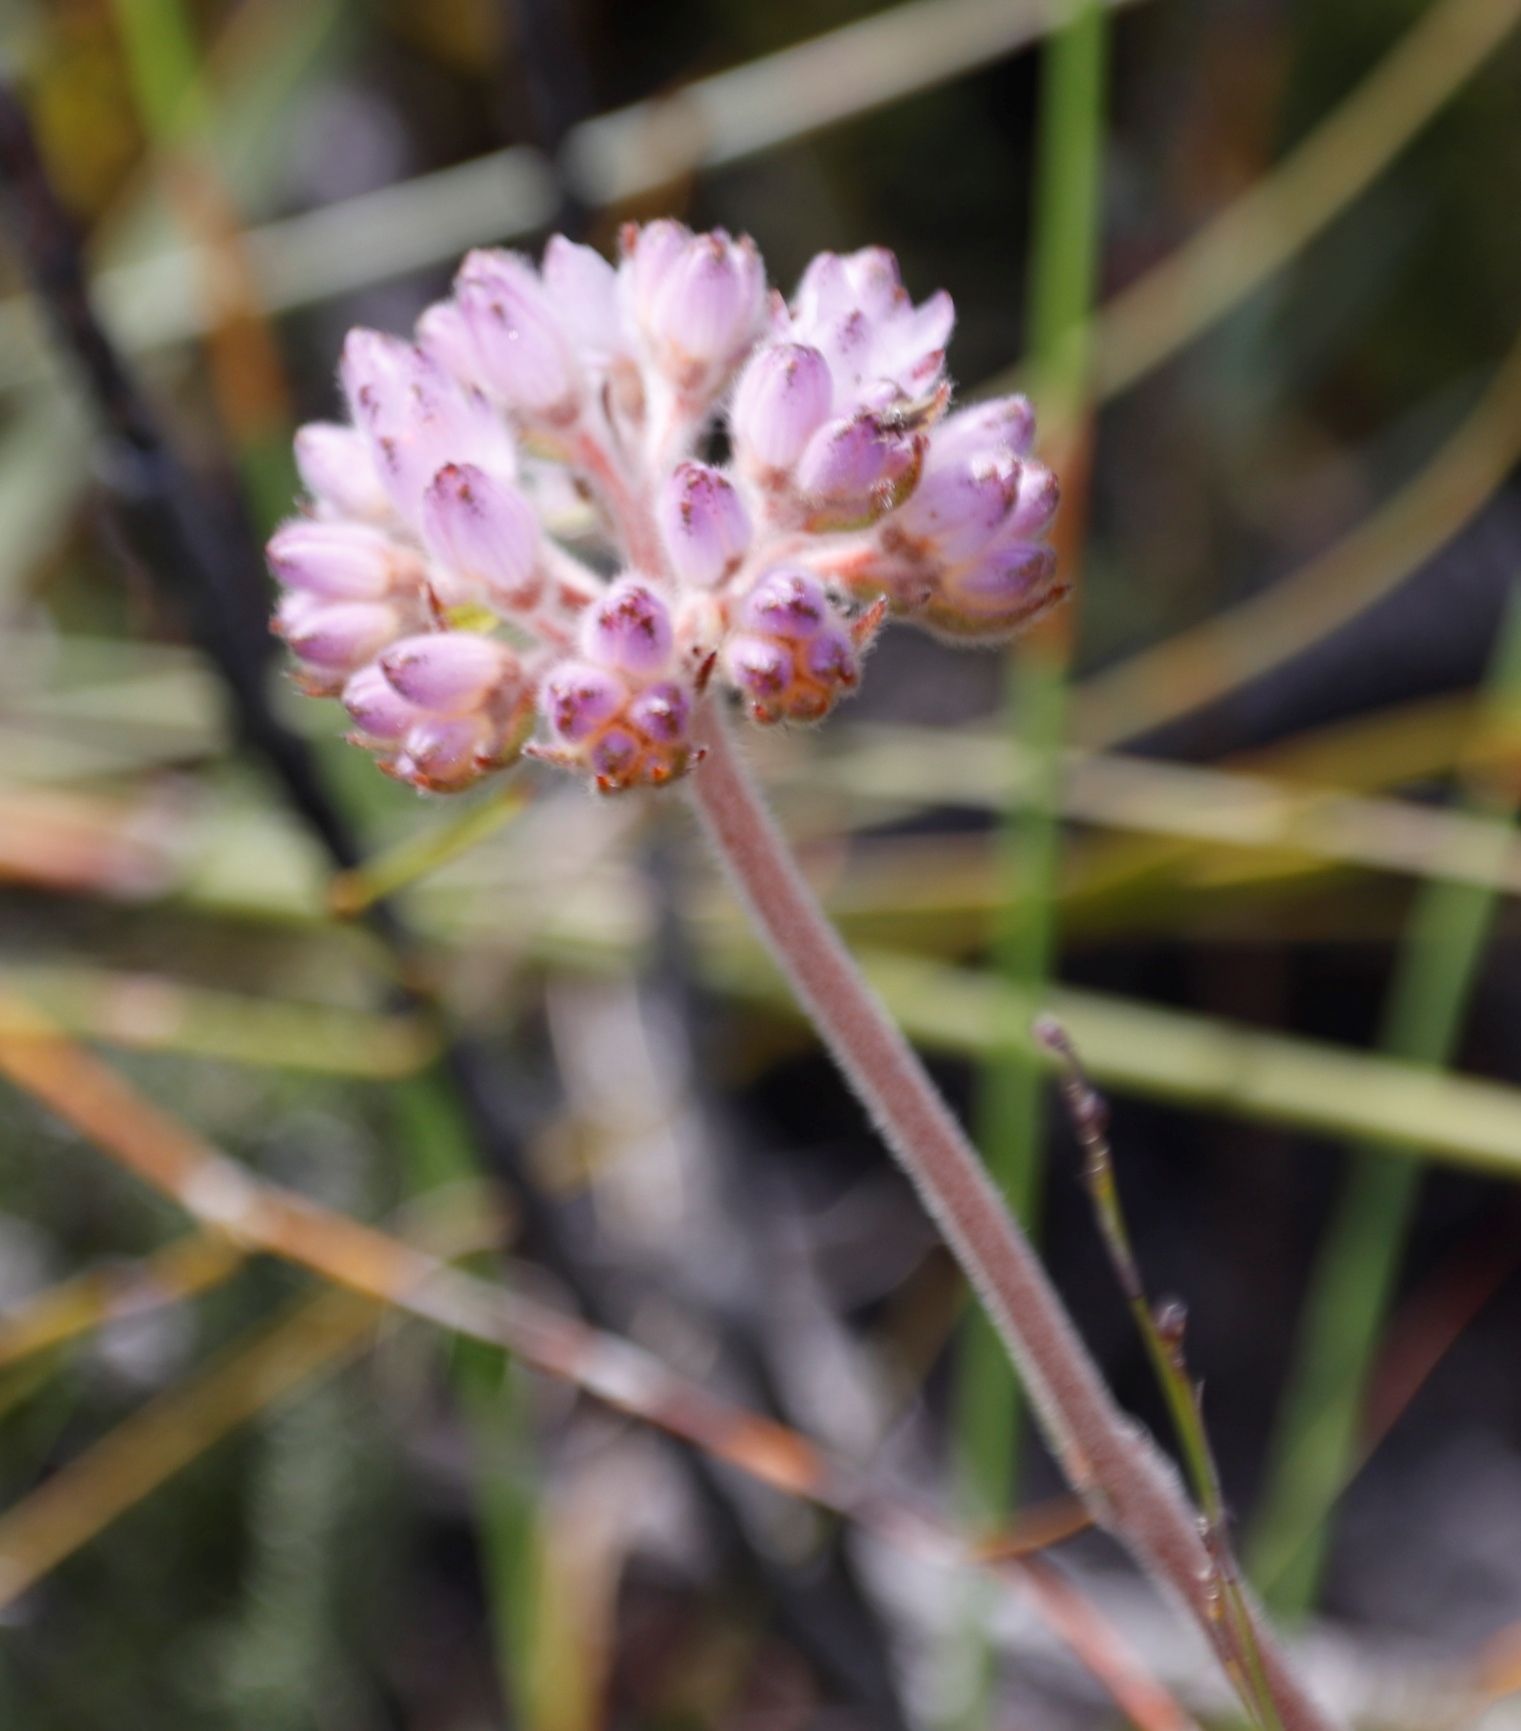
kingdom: Plantae
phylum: Tracheophyta
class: Liliopsida
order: Commelinales
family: Haemodoraceae
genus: Dilatris
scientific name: Dilatris pillansii
